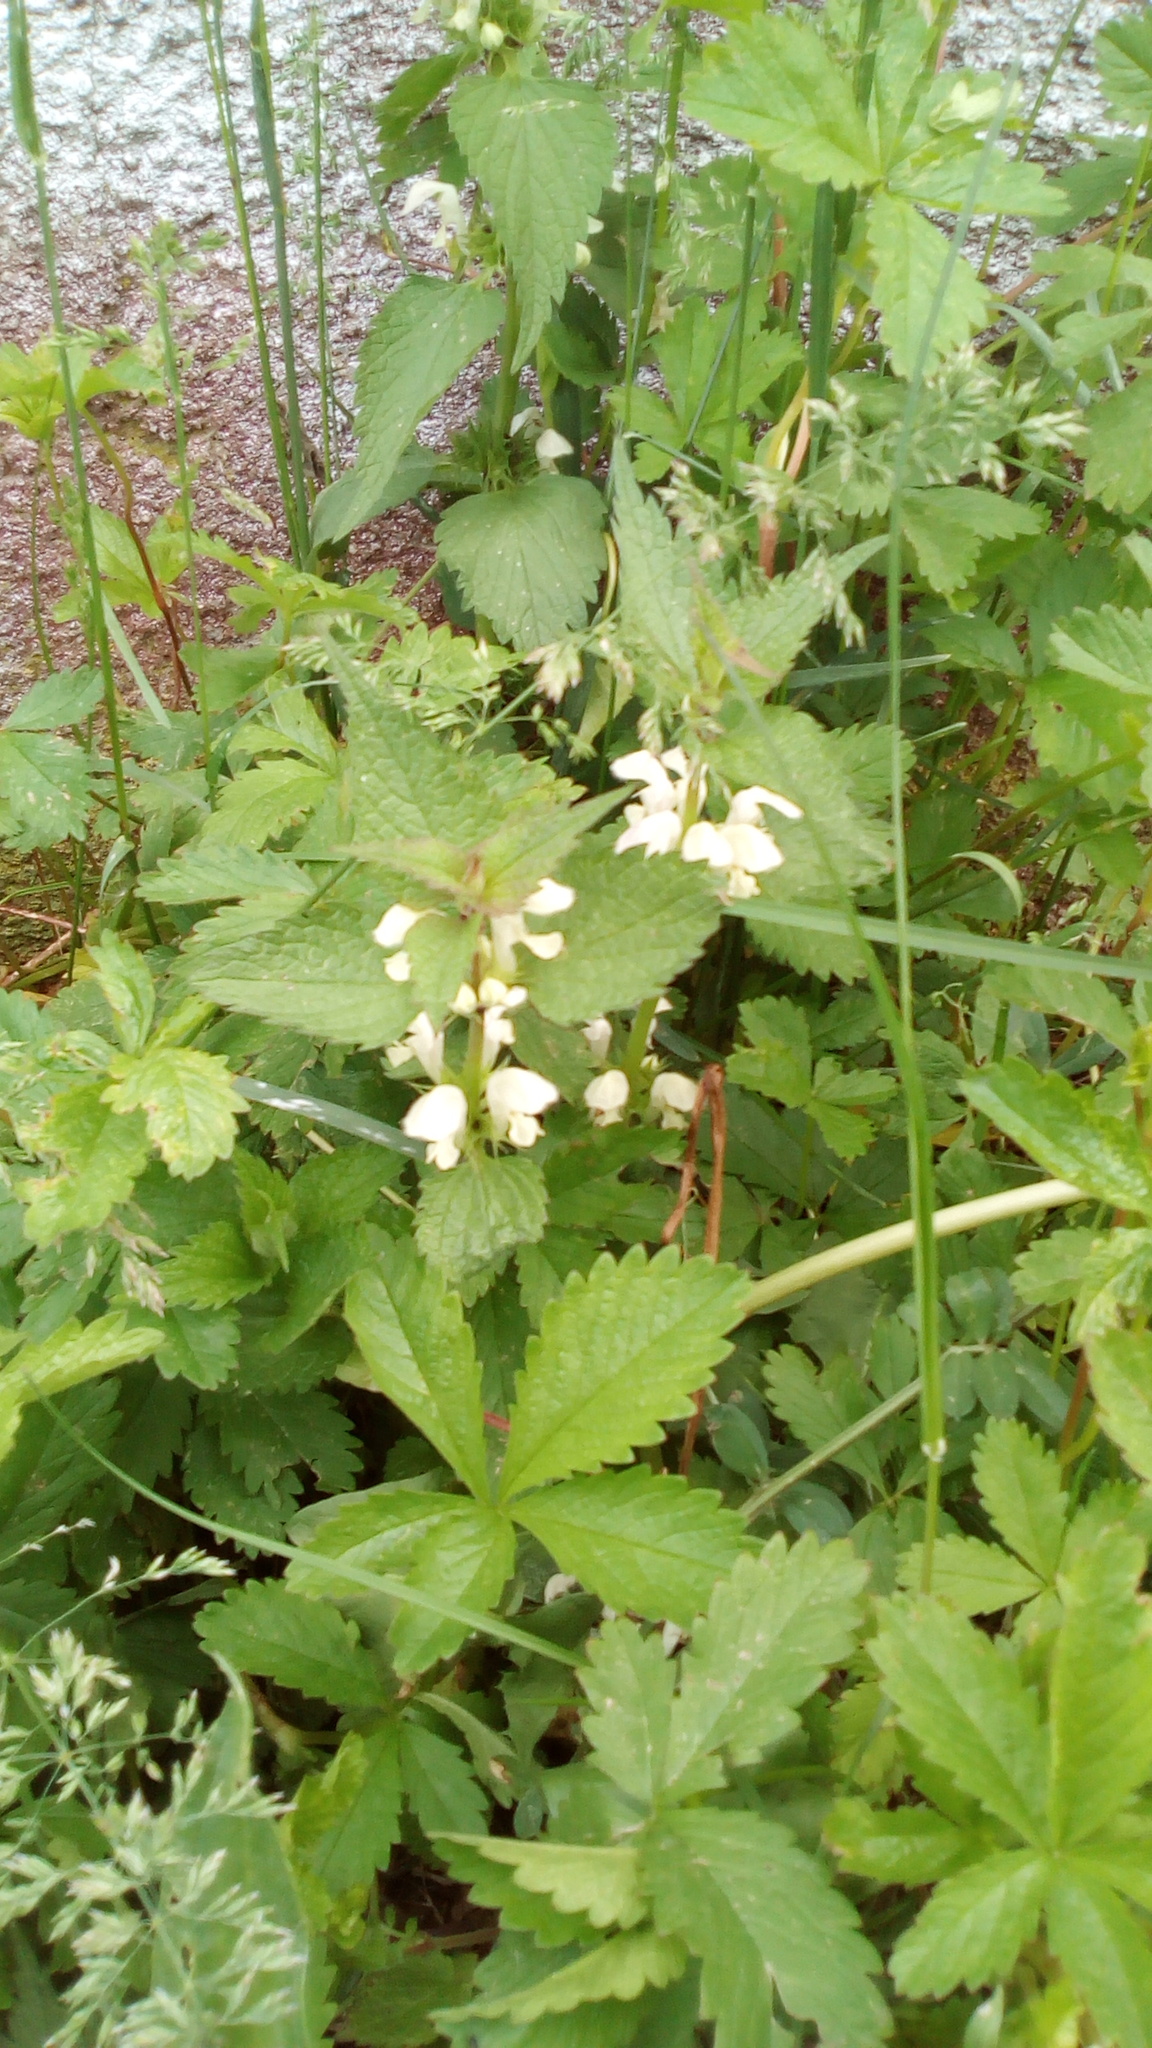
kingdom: Plantae
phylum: Tracheophyta
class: Magnoliopsida
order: Lamiales
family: Lamiaceae
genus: Lamium
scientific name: Lamium album
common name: White dead-nettle
